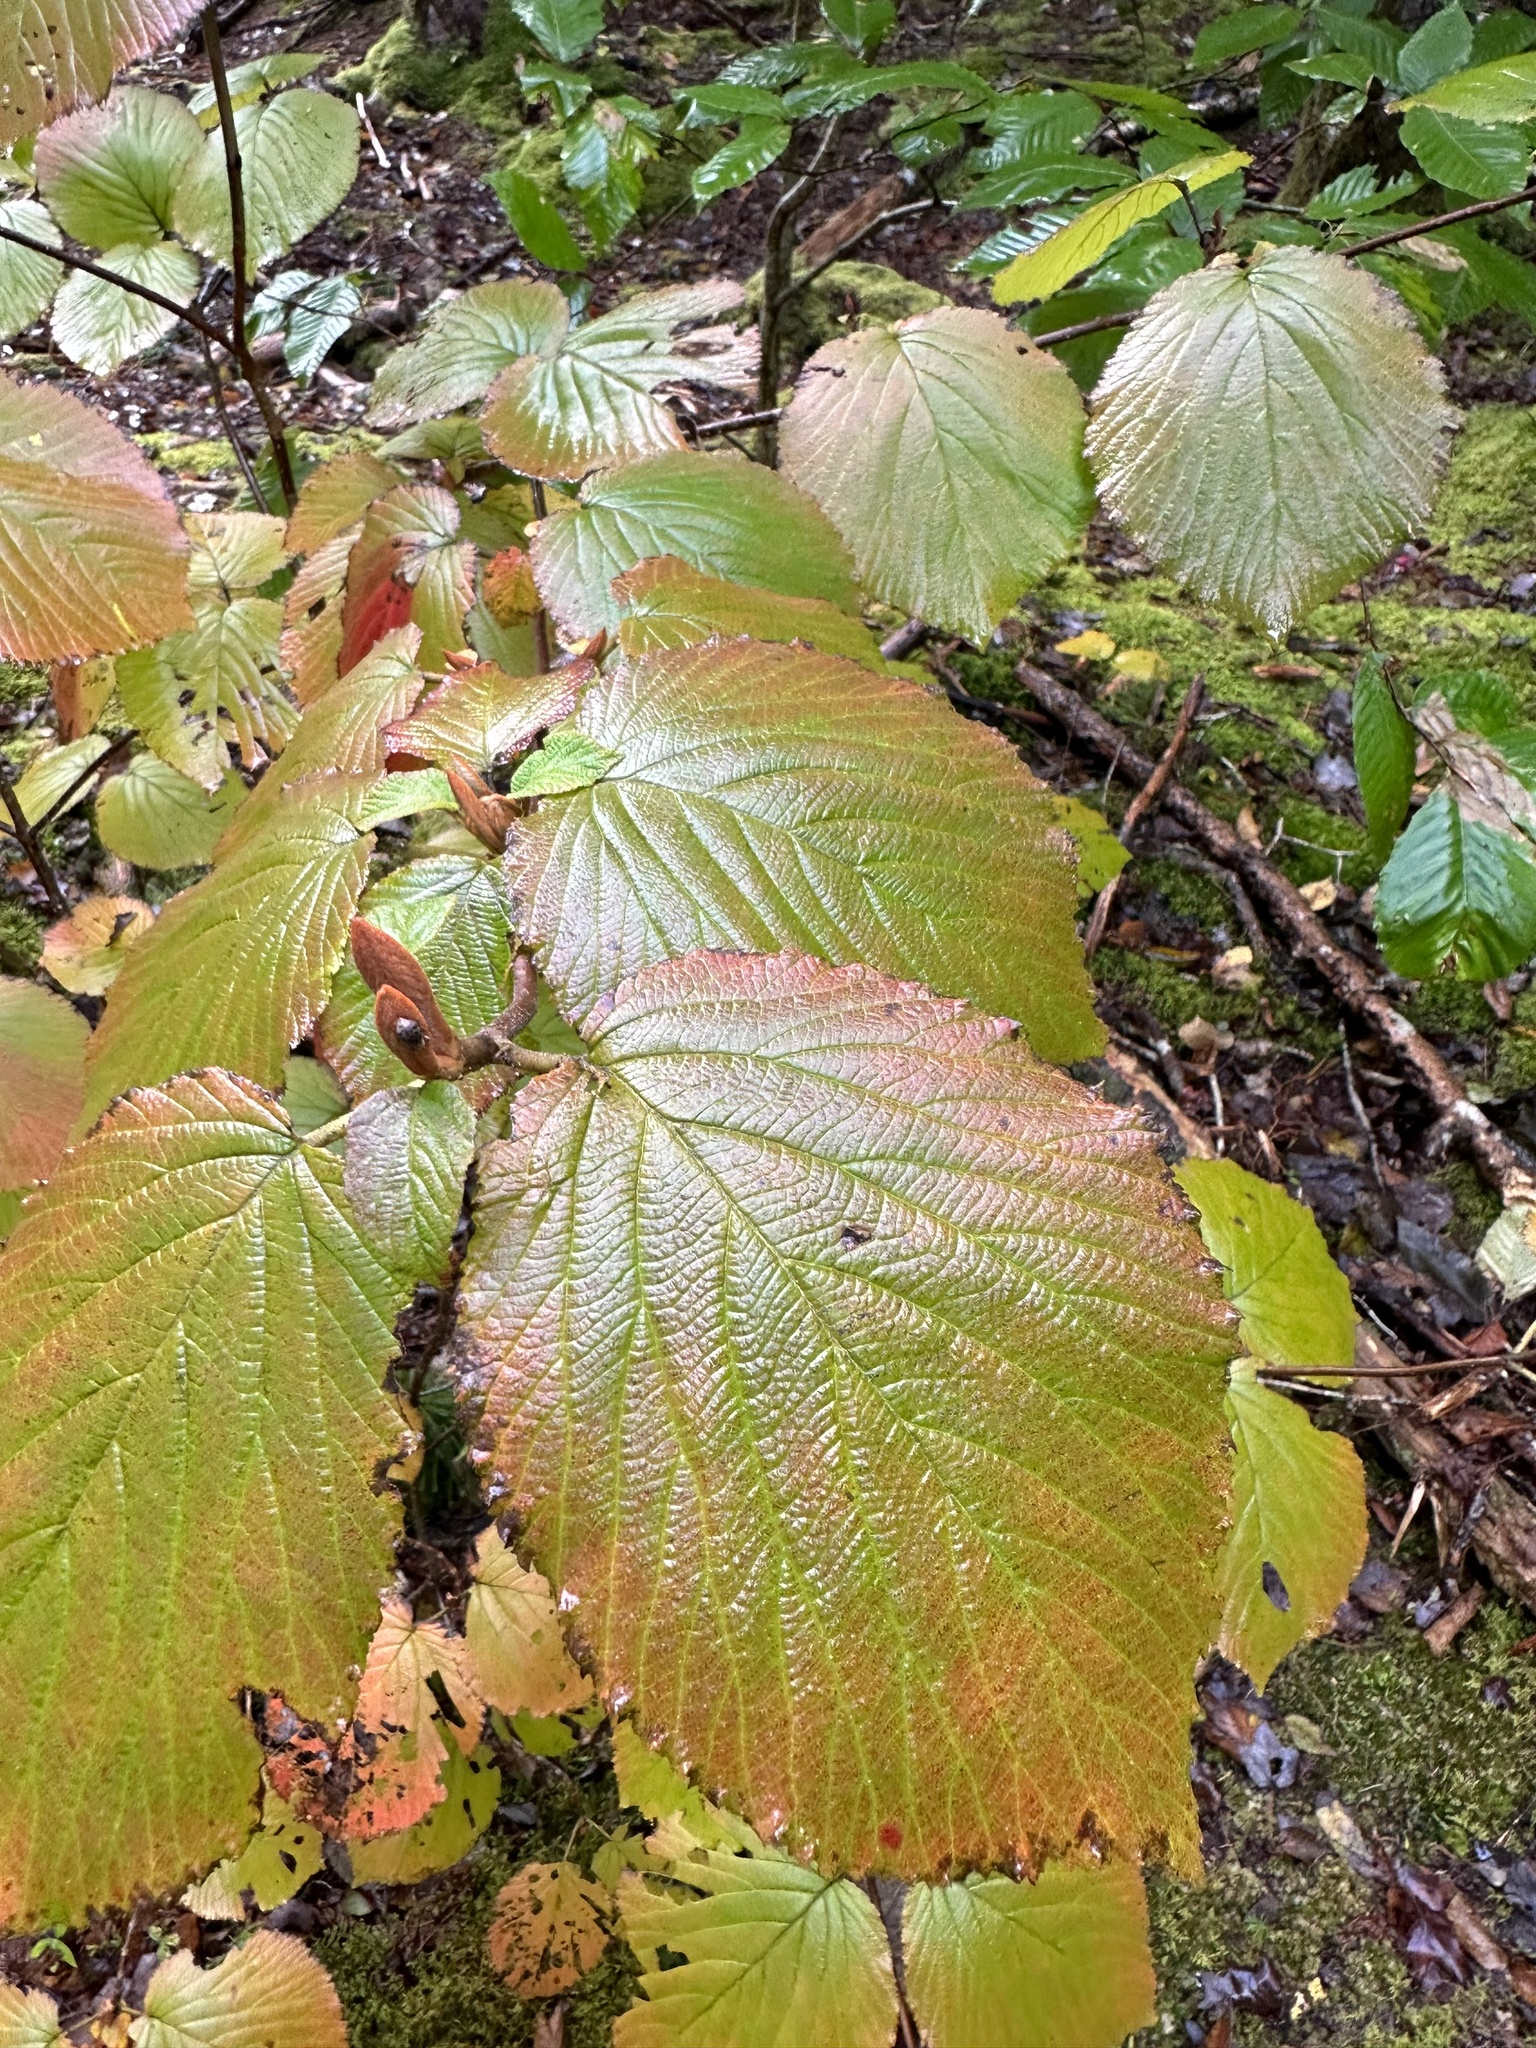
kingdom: Plantae
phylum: Tracheophyta
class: Magnoliopsida
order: Dipsacales
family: Viburnaceae
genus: Viburnum
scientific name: Viburnum lantanoides
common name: Hobblebush
